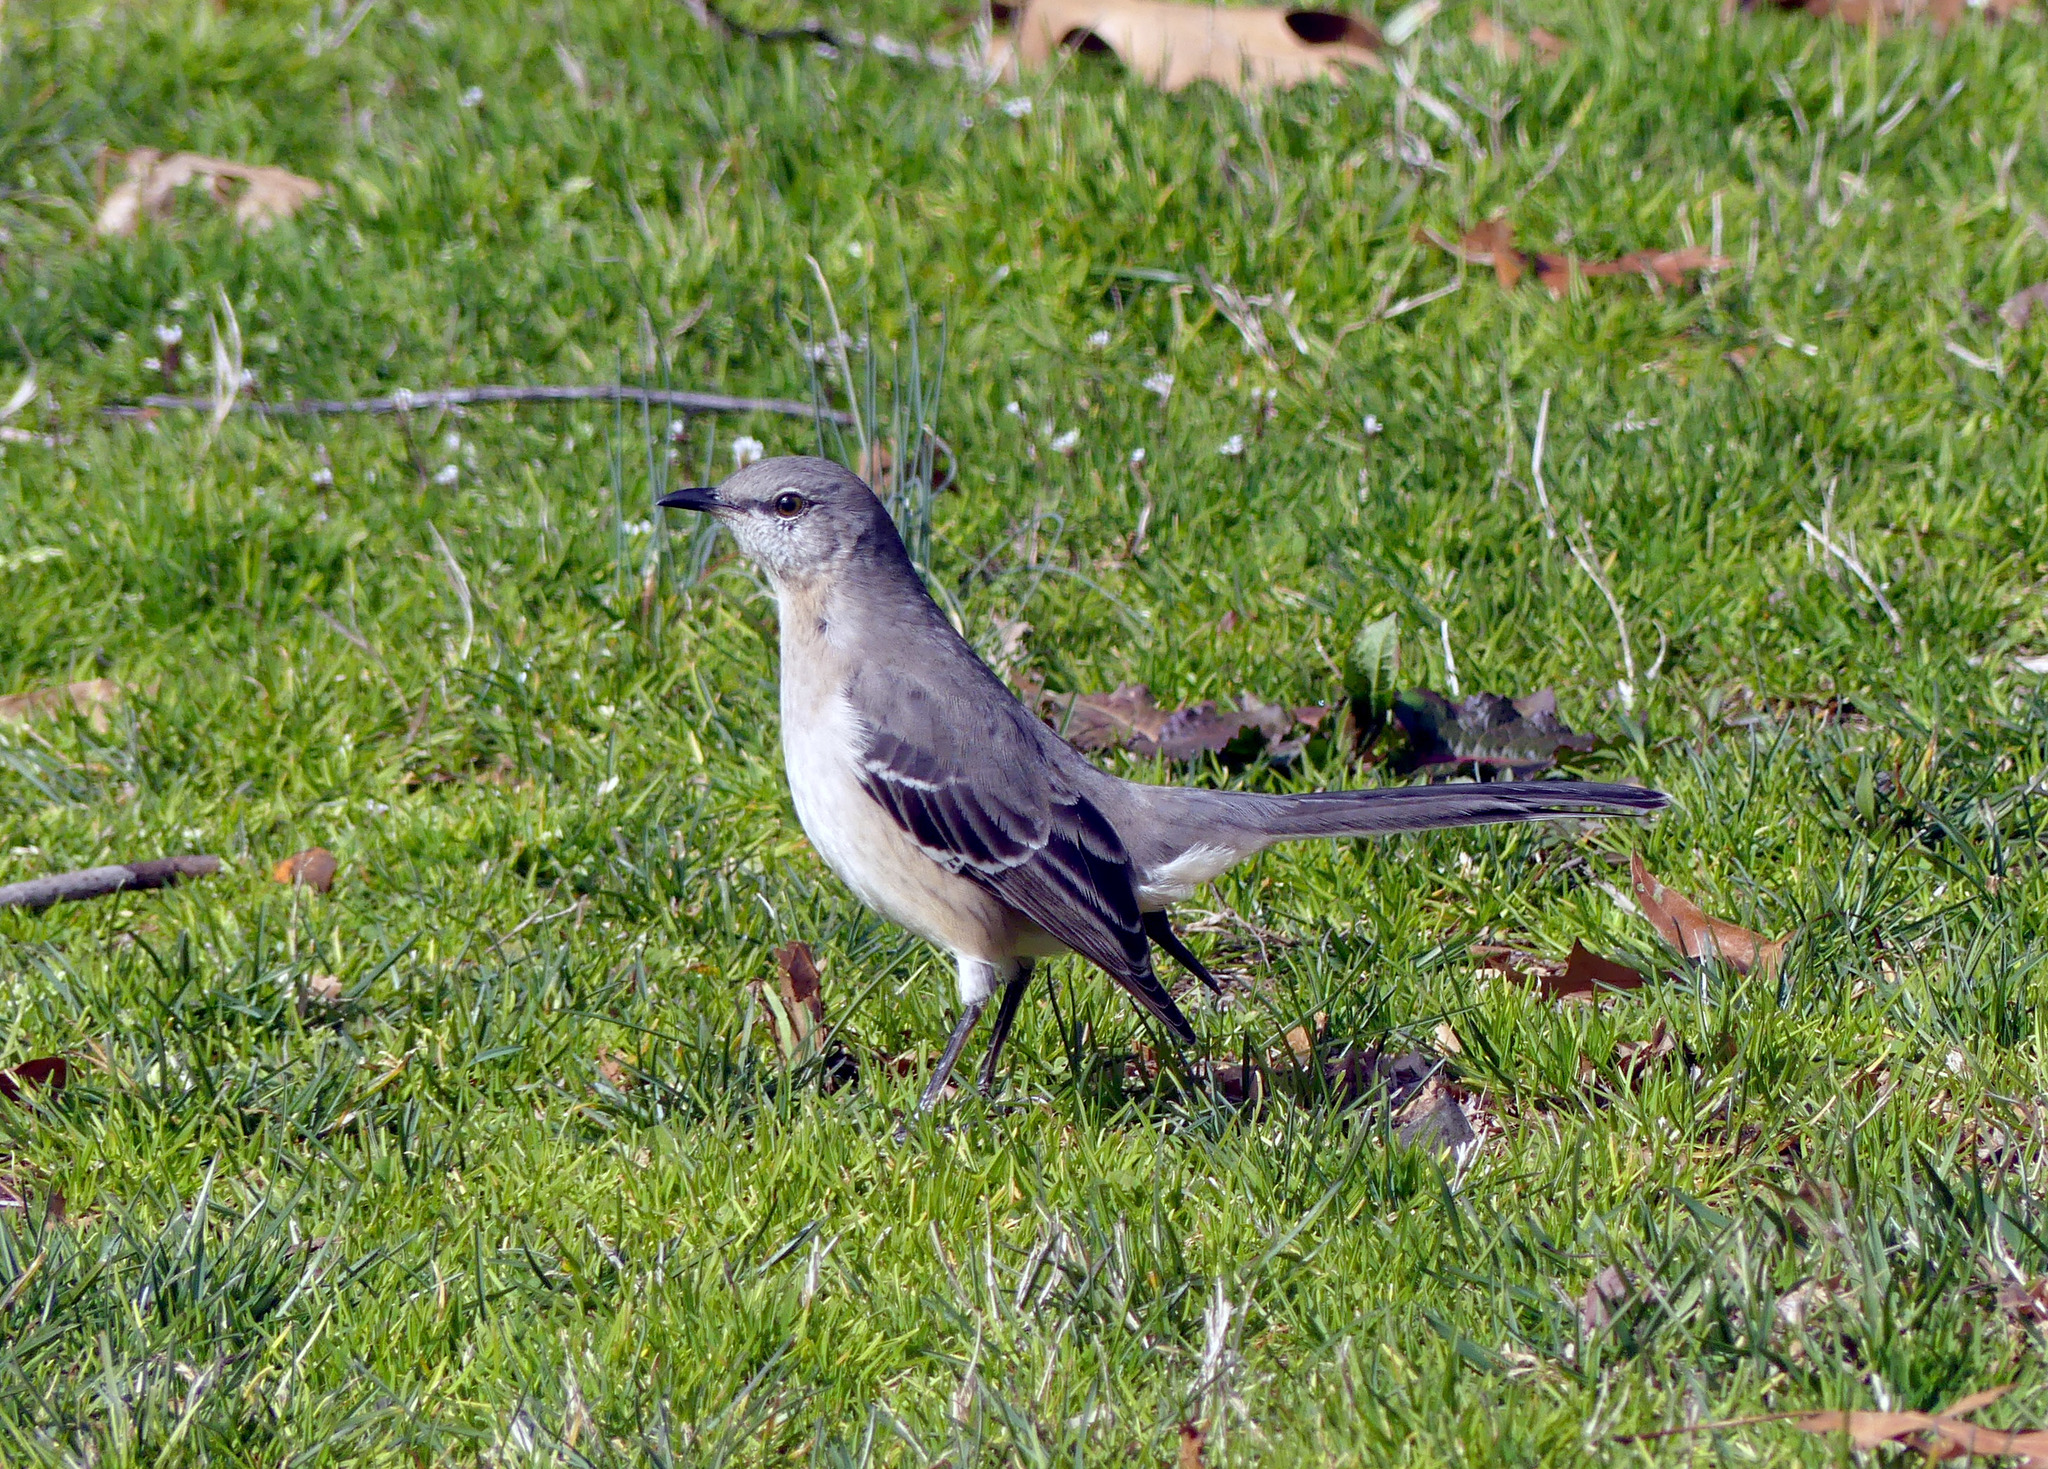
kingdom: Animalia
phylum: Chordata
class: Aves
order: Passeriformes
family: Mimidae
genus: Mimus
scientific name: Mimus polyglottos
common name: Northern mockingbird
